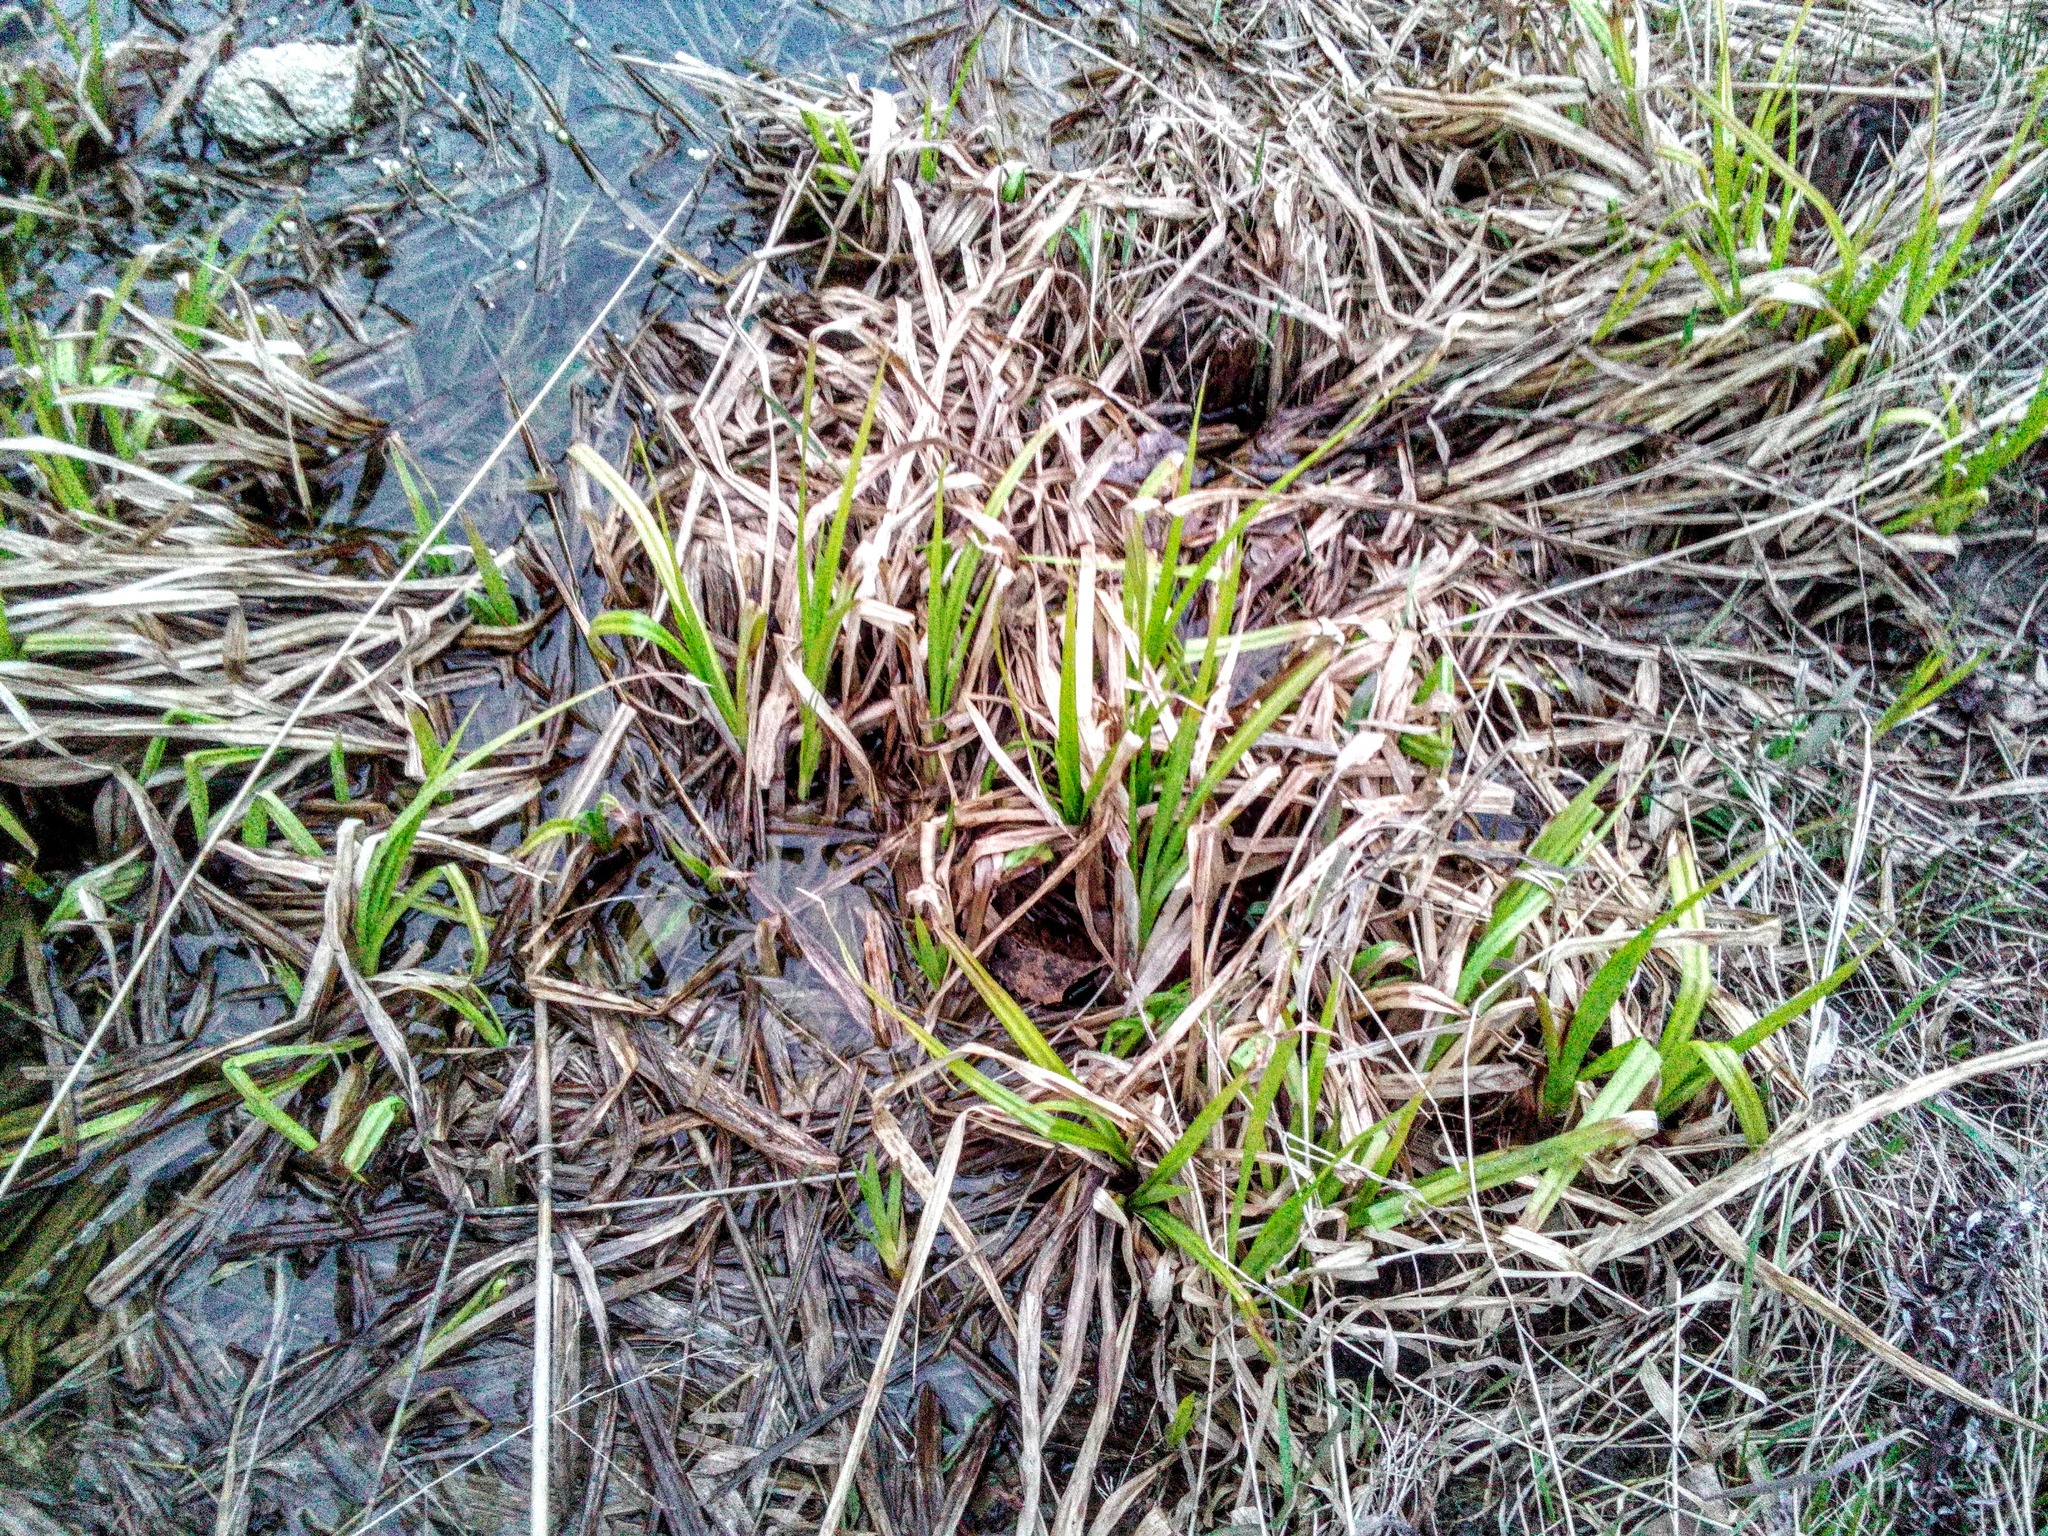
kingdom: Plantae
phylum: Tracheophyta
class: Liliopsida
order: Poales
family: Cyperaceae
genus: Scirpus
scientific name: Scirpus sylvaticus
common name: Wood club-rush
